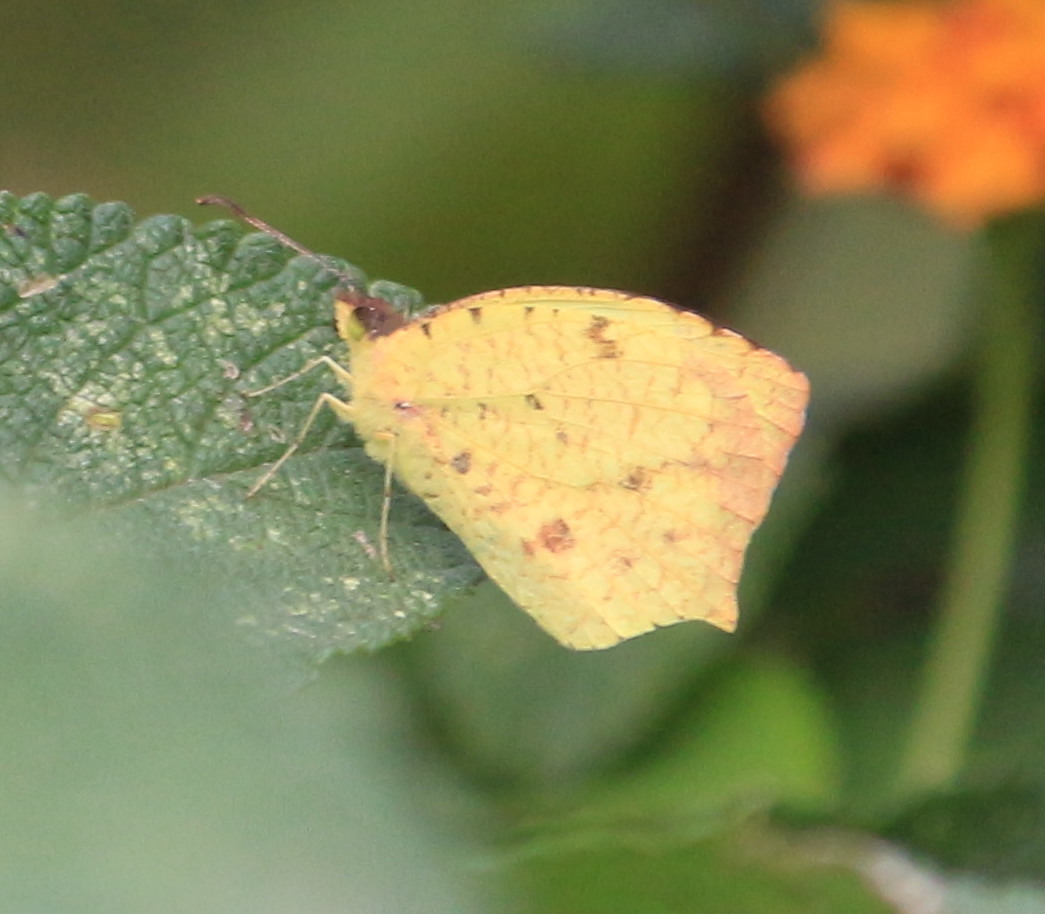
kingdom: Animalia
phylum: Arthropoda
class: Insecta
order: Lepidoptera
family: Pieridae
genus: Abaeis
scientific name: Abaeis salome
